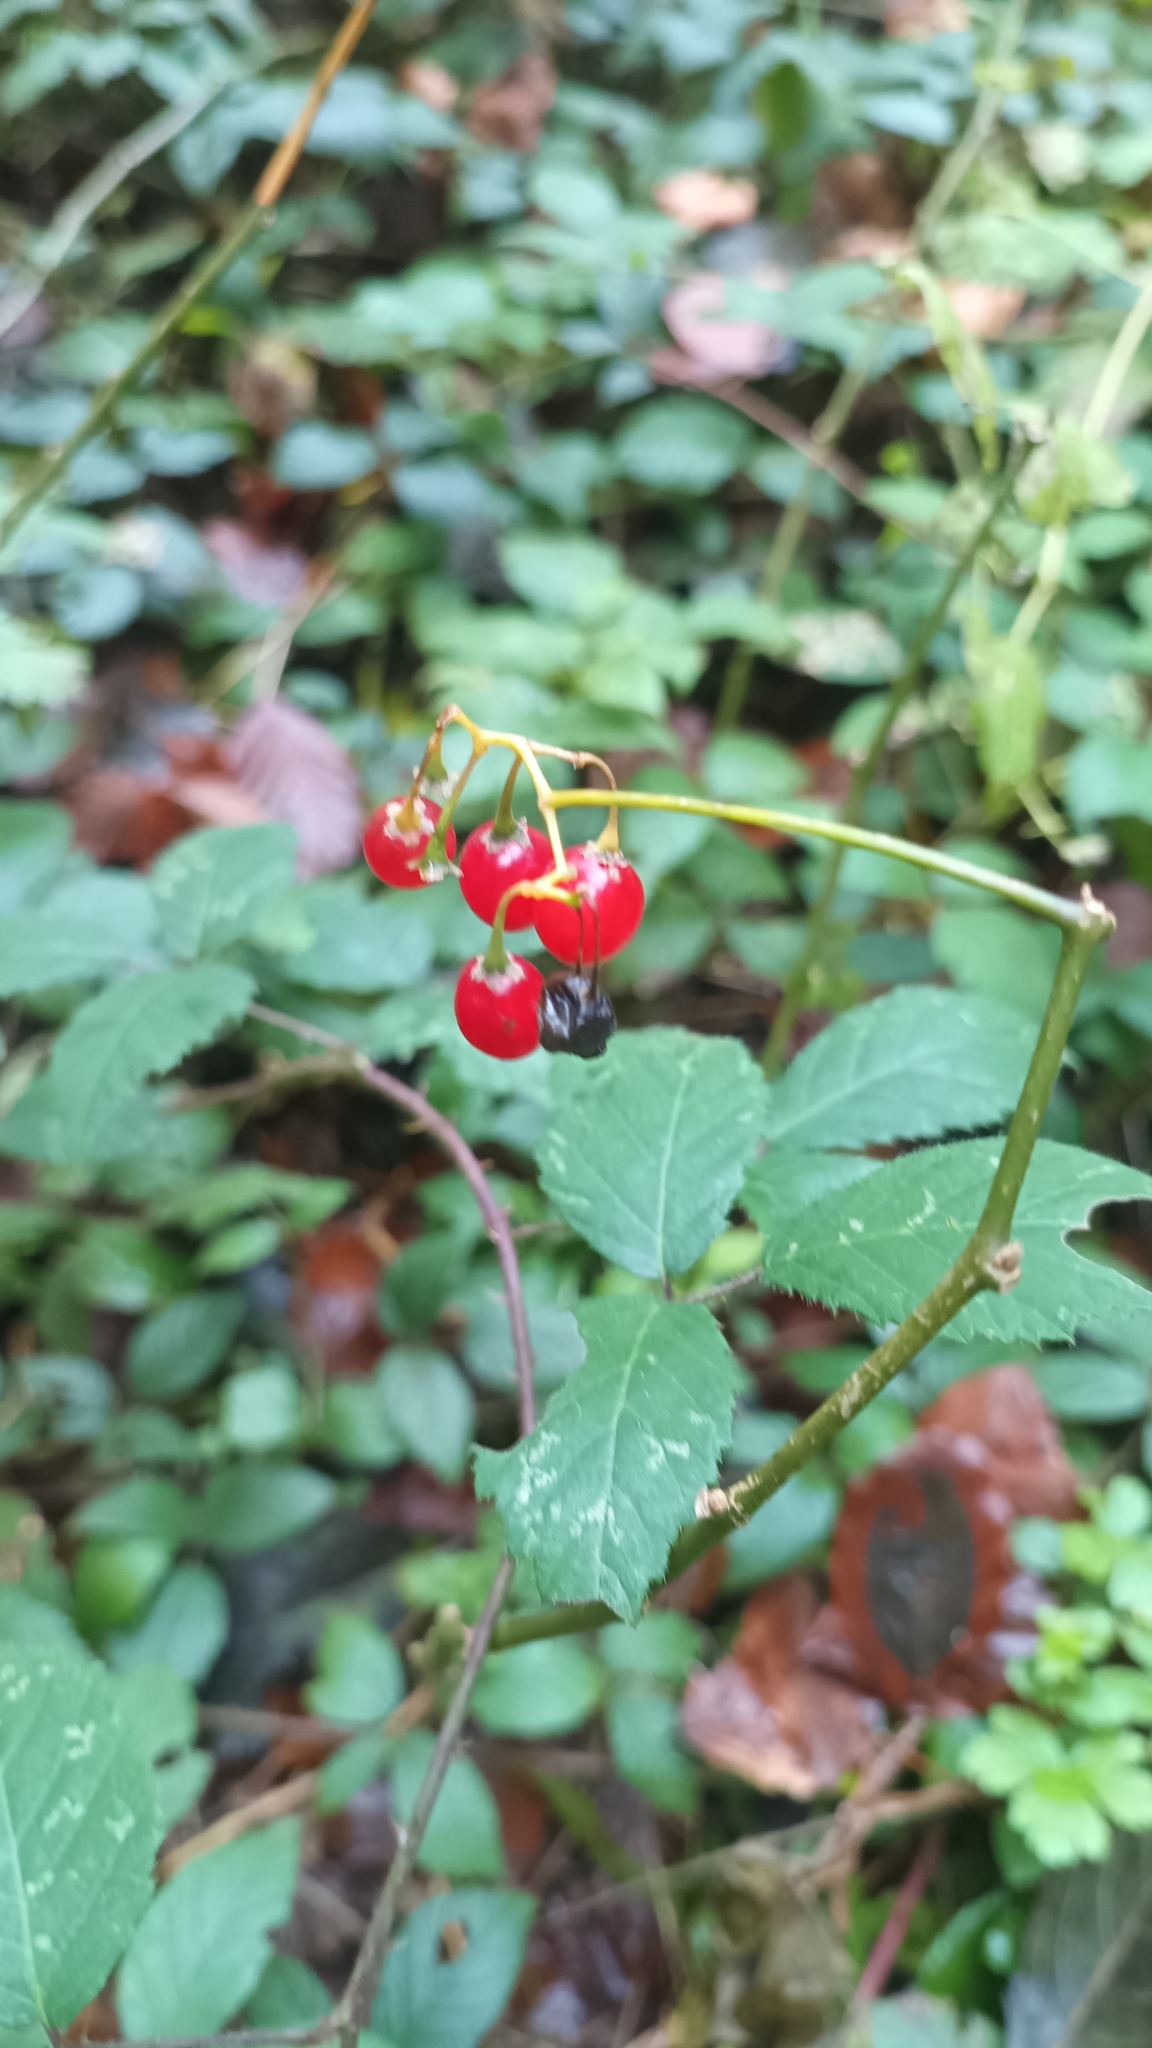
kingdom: Plantae
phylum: Tracheophyta
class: Magnoliopsida
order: Solanales
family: Solanaceae
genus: Solanum
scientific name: Solanum dulcamara
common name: Climbing nightshade
